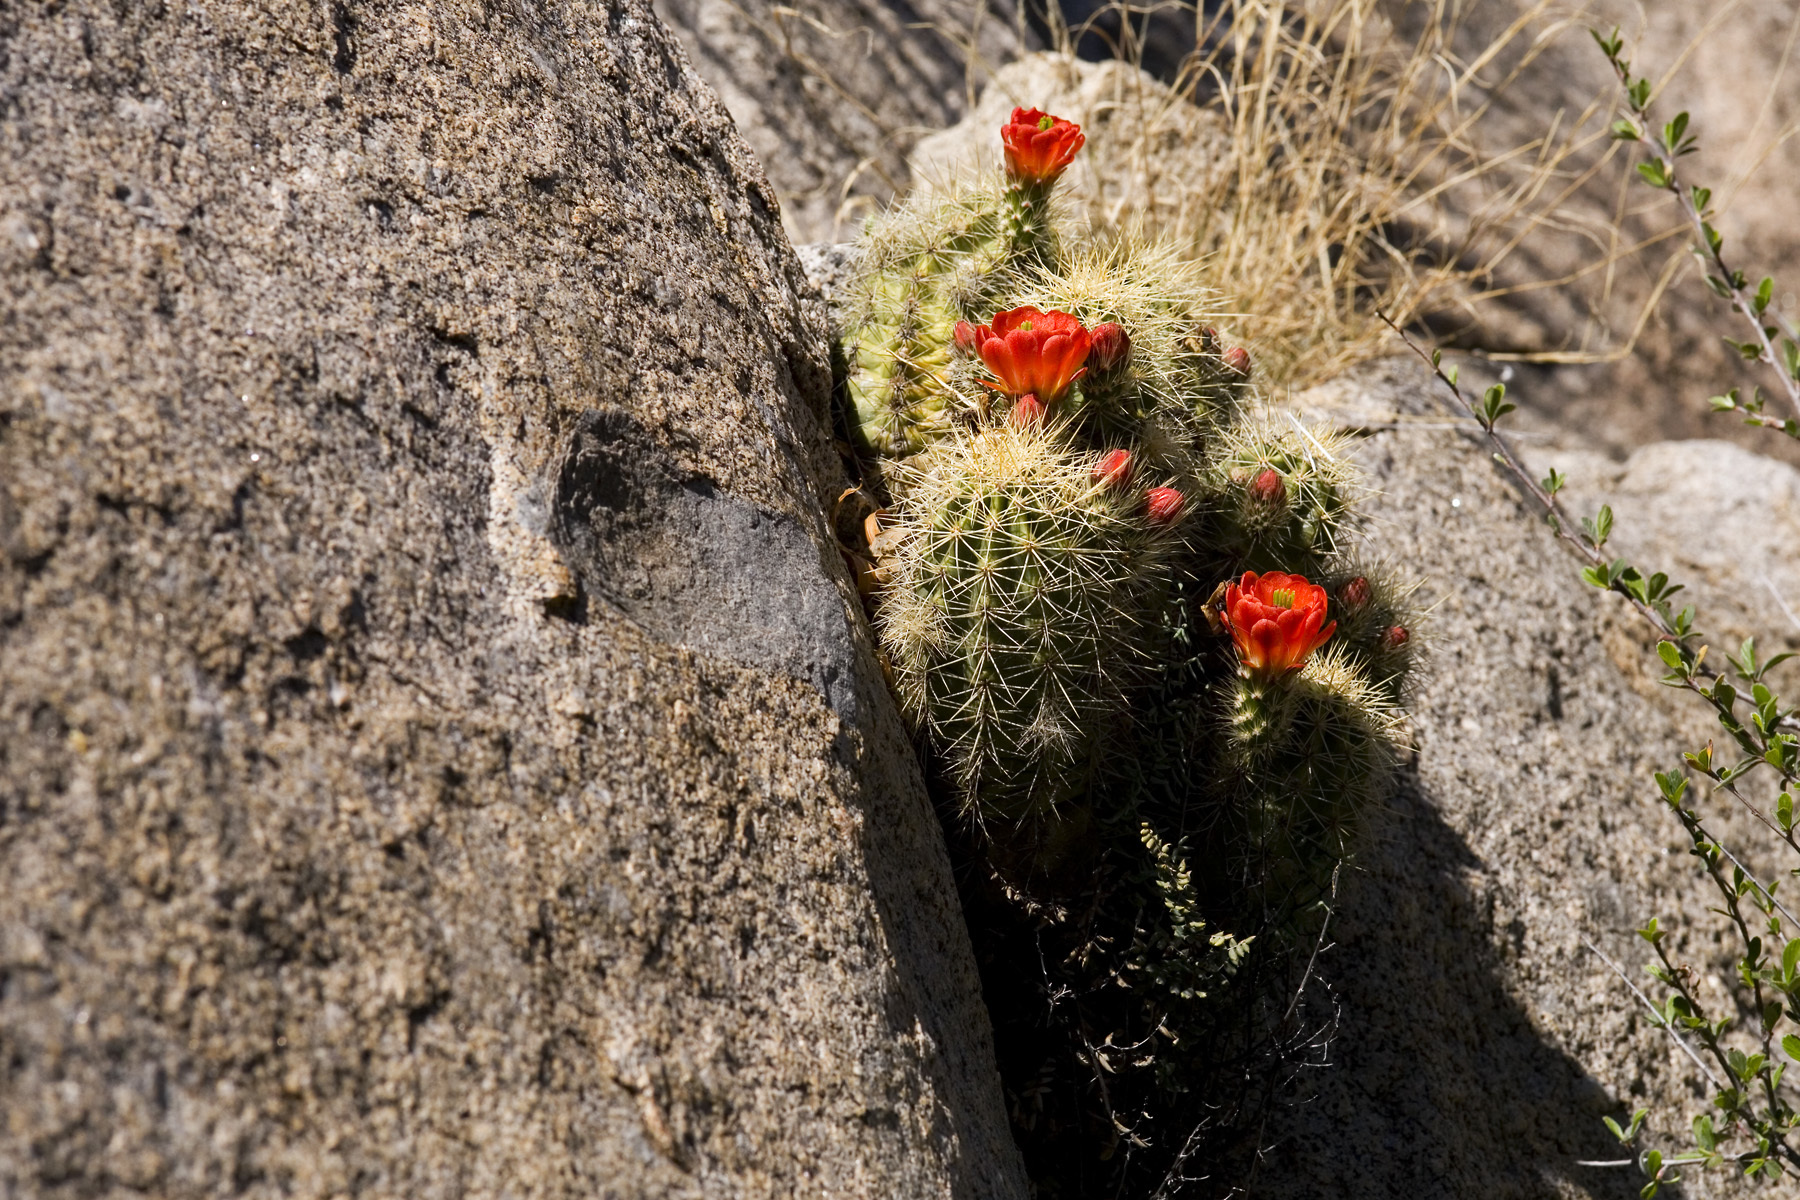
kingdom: Plantae
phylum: Tracheophyta
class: Magnoliopsida
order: Caryophyllales
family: Cactaceae
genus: Echinocereus
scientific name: Echinocereus coccineus
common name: Scarlet hedgehog cactus
